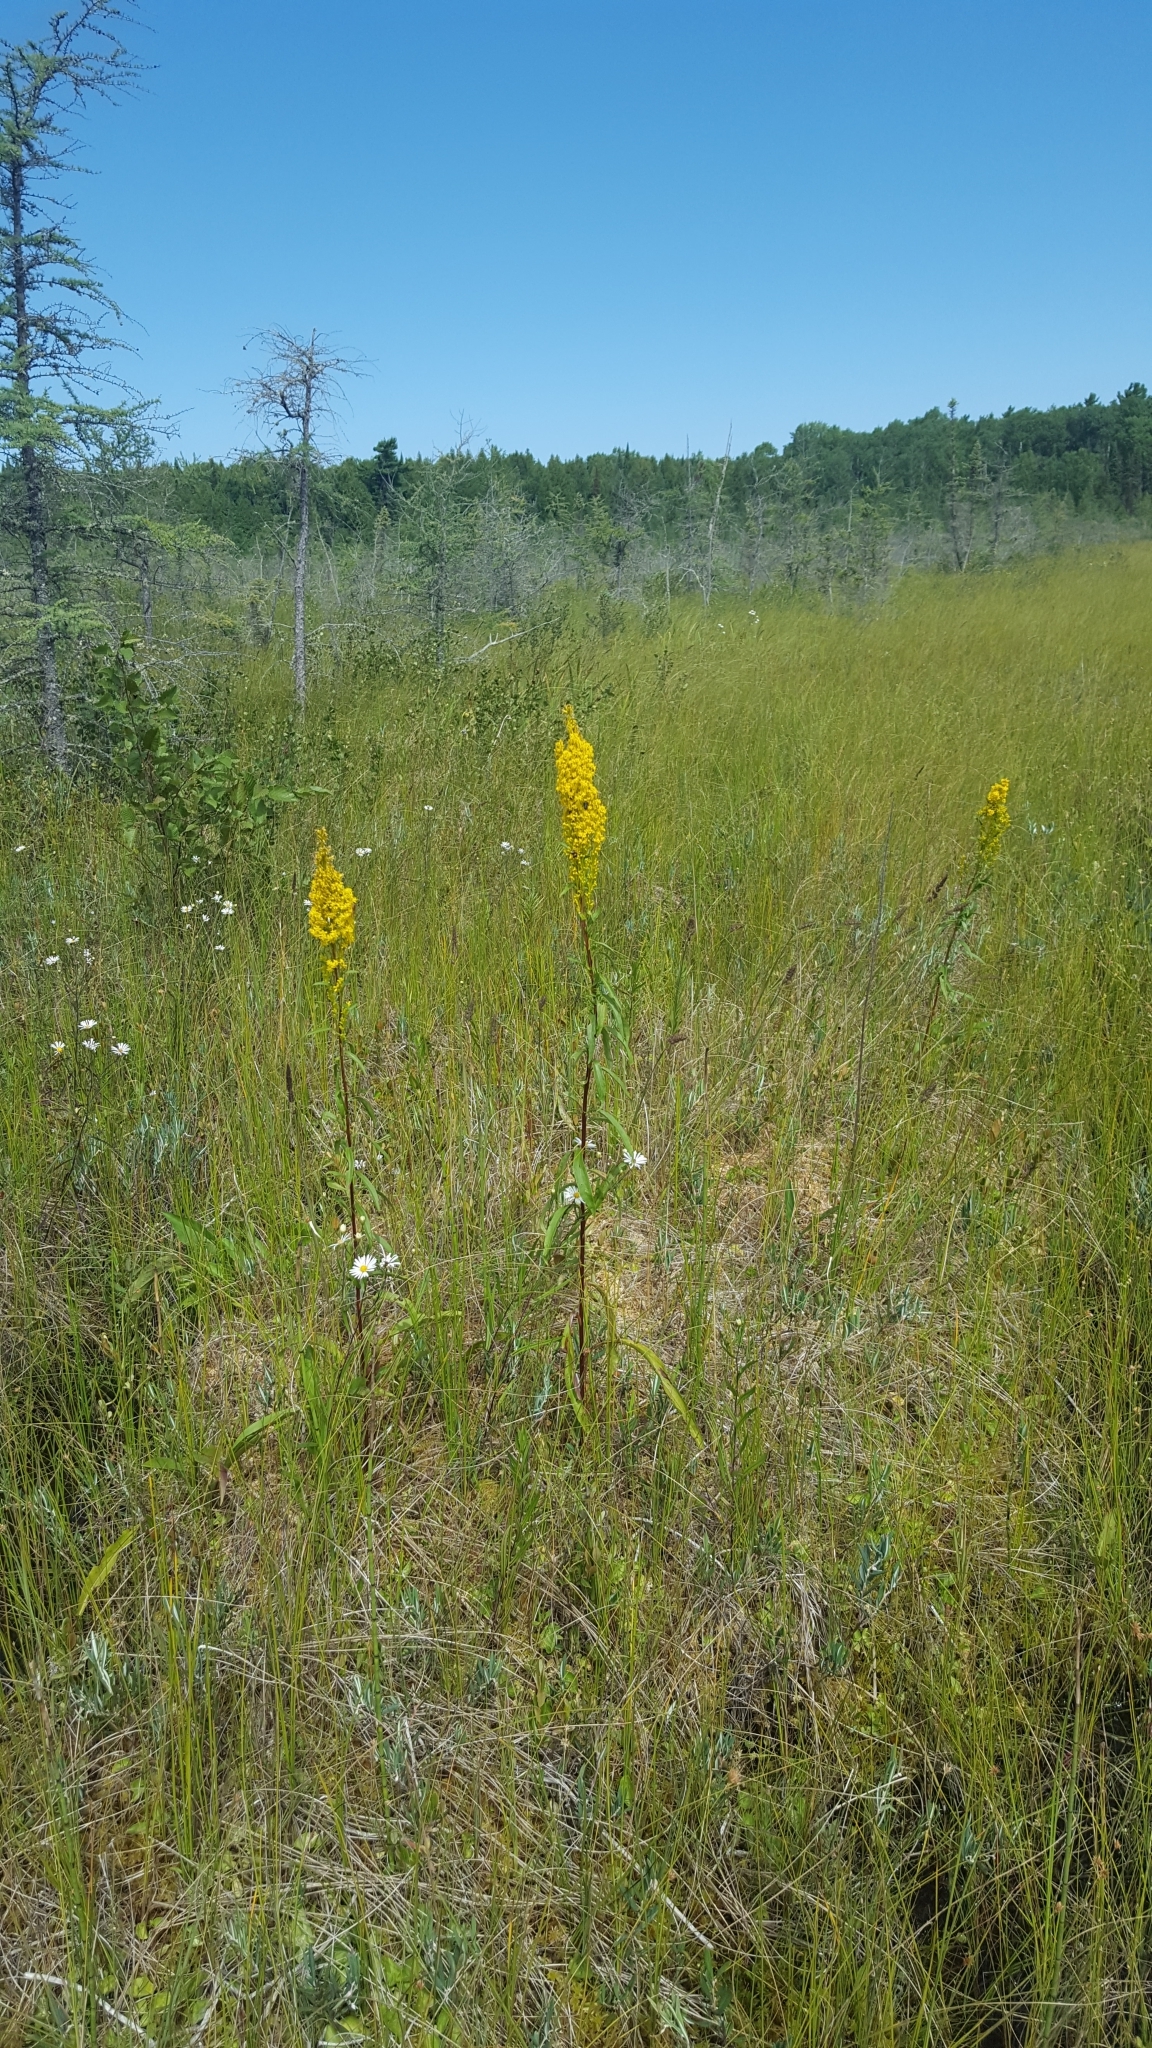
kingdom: Plantae
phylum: Tracheophyta
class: Magnoliopsida
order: Asterales
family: Asteraceae
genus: Solidago
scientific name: Solidago uliginosa
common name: Bog goldenrod
